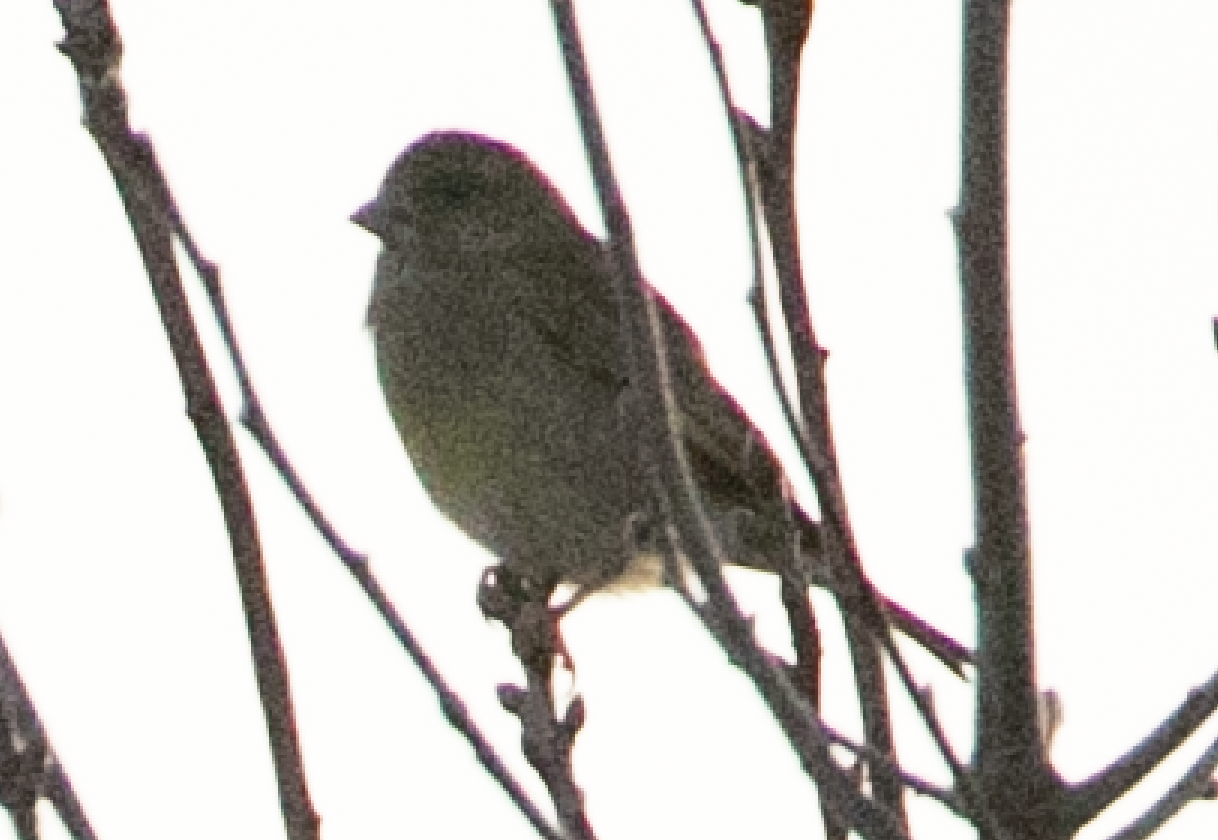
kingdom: Plantae
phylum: Tracheophyta
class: Liliopsida
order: Poales
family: Poaceae
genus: Chloris
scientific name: Chloris chloris
